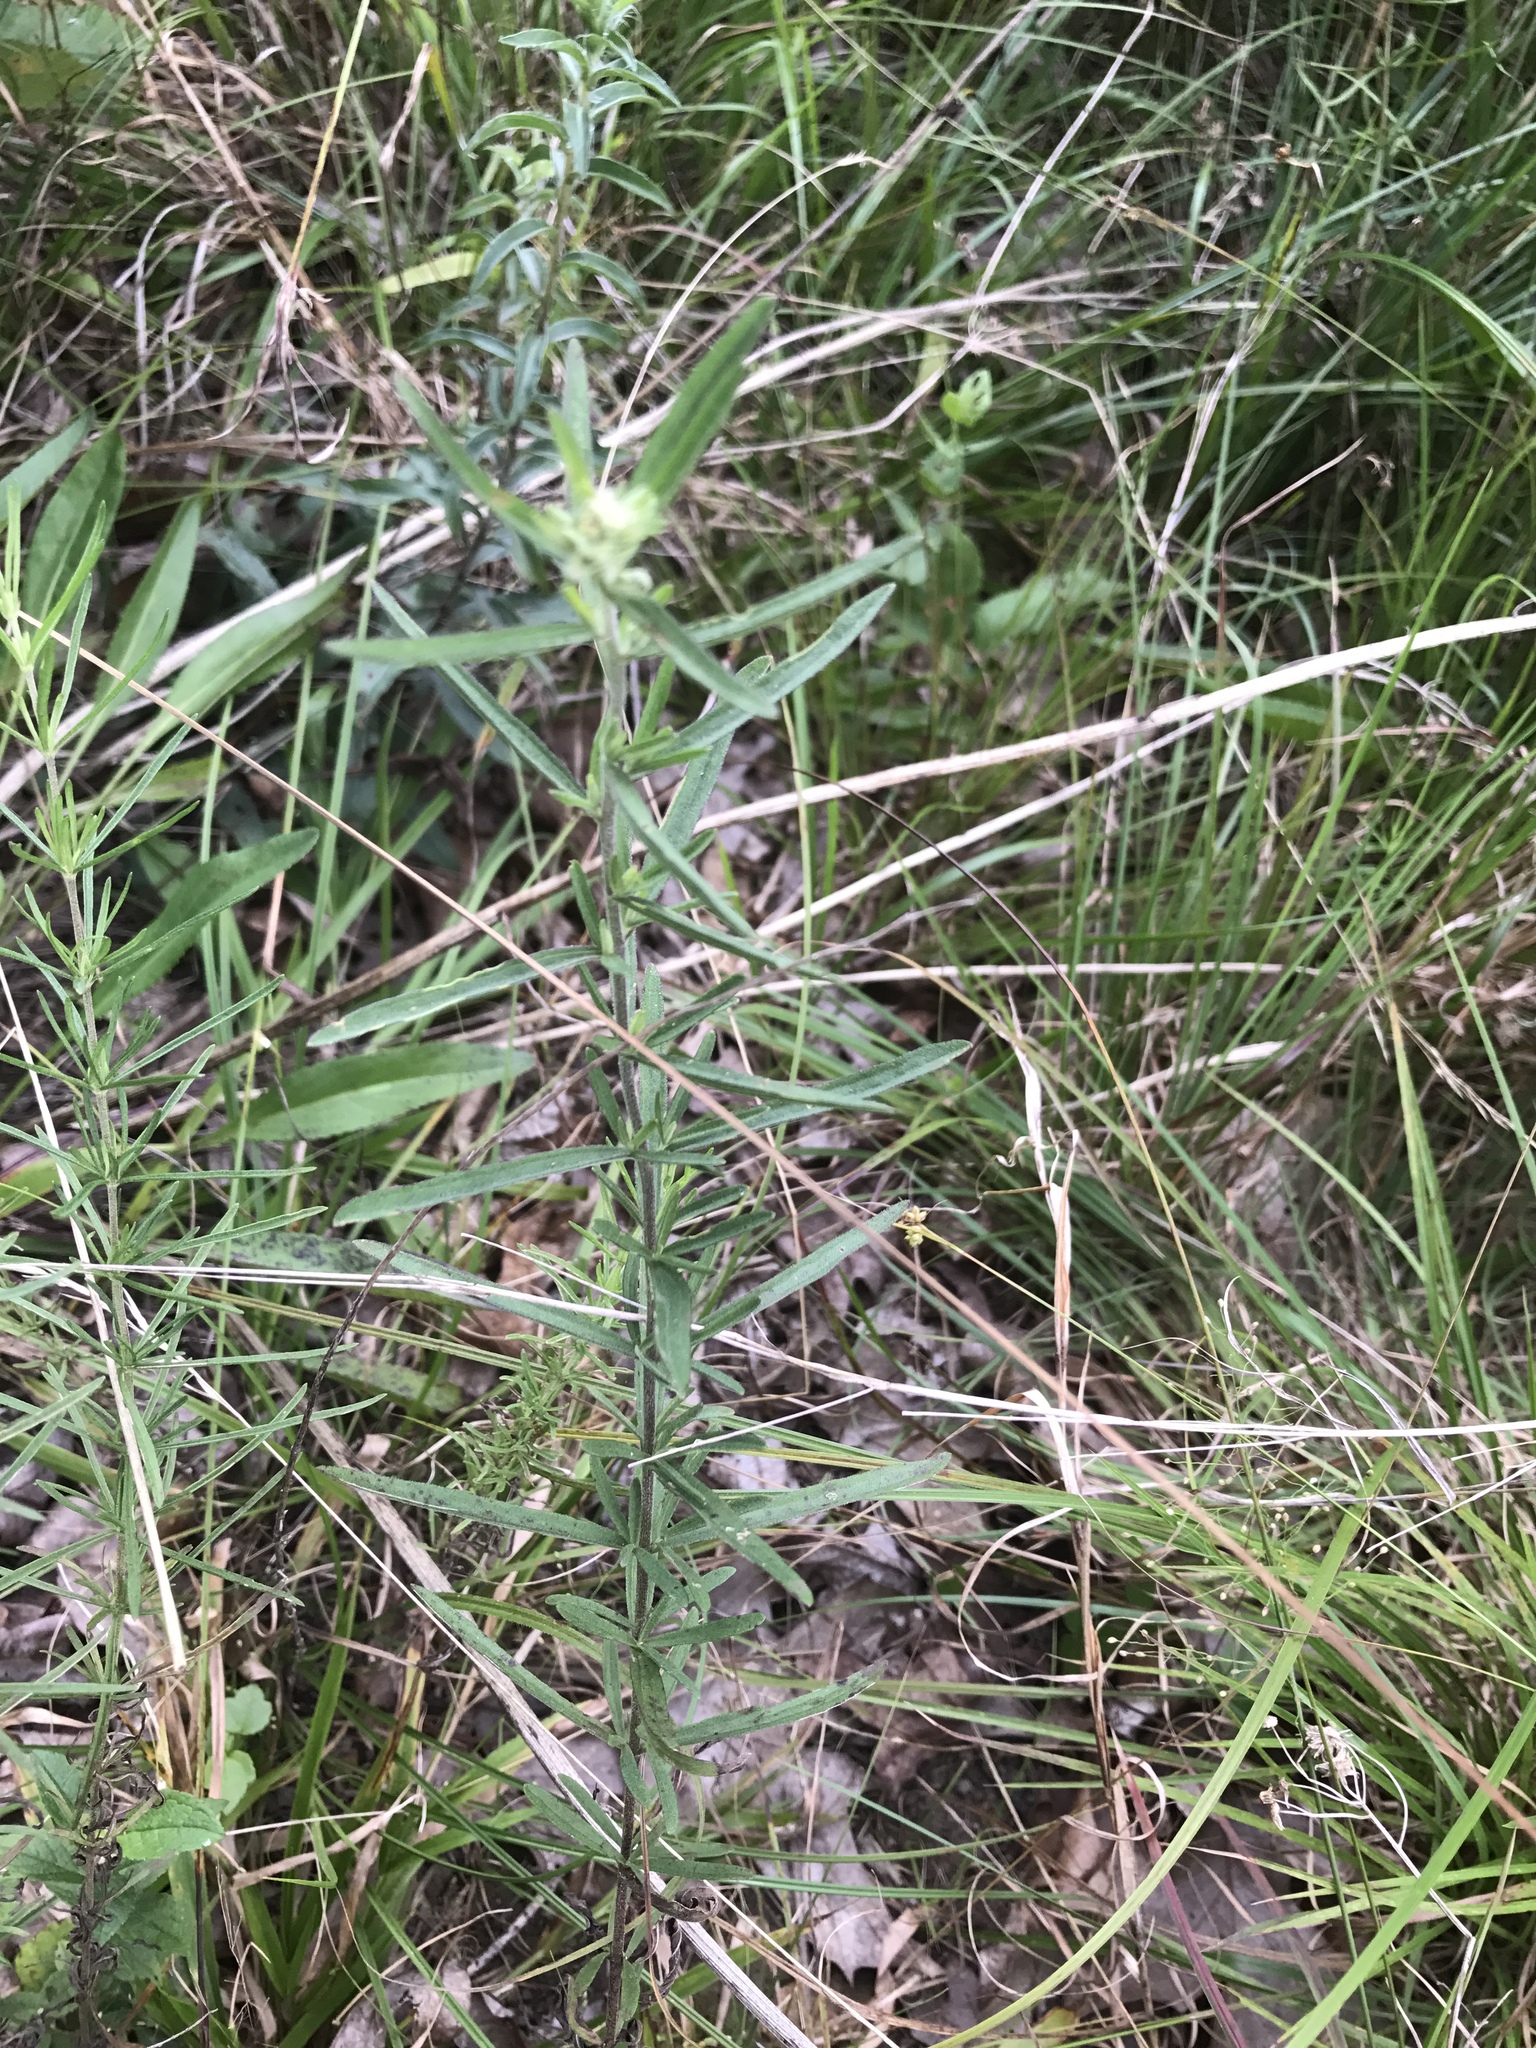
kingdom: Plantae
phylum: Tracheophyta
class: Magnoliopsida
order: Asterales
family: Asteraceae
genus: Eupatorium
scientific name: Eupatorium torreyanum
